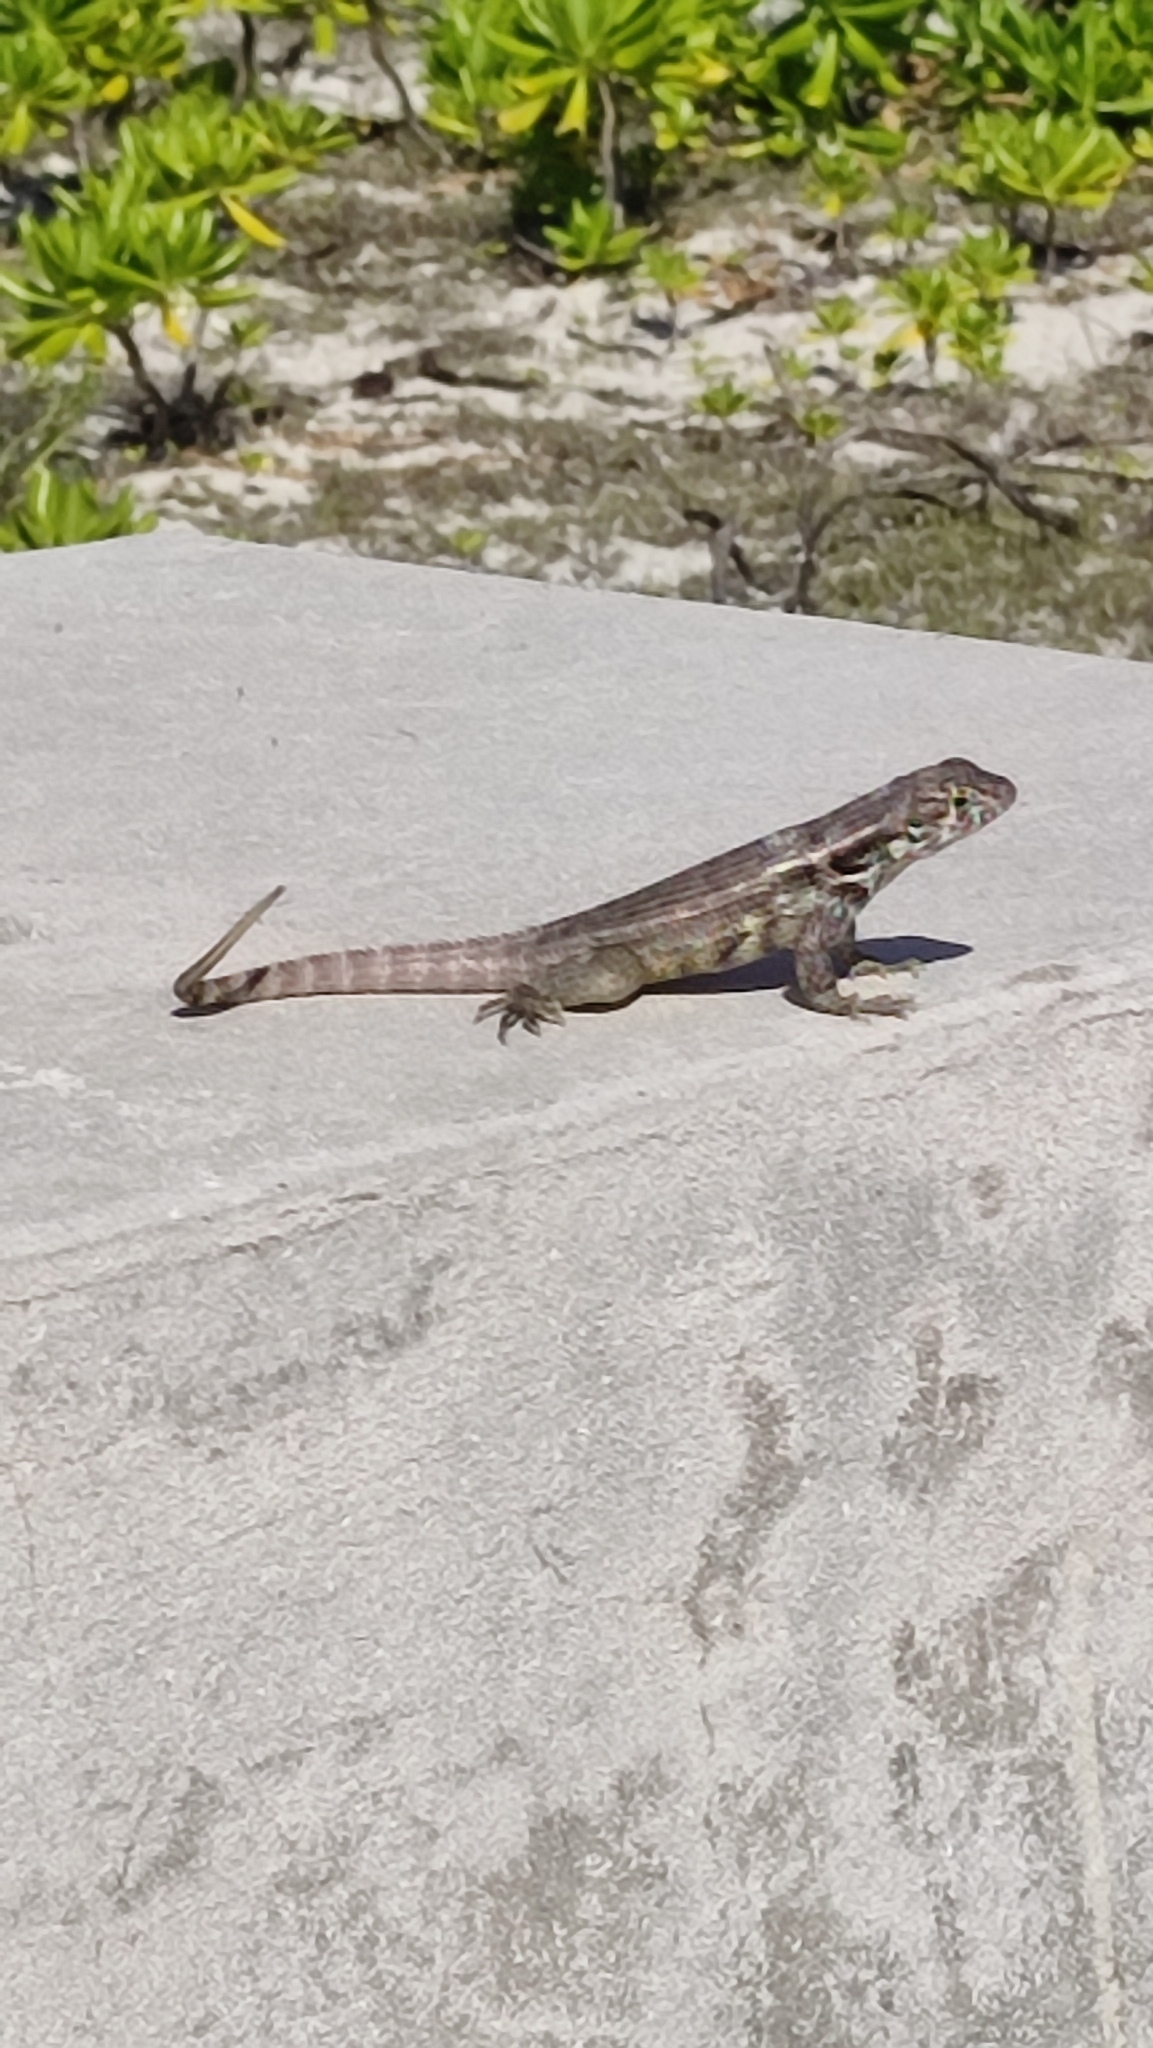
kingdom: Animalia
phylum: Chordata
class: Squamata
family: Leiocephalidae
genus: Leiocephalus
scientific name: Leiocephalus varius
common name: Cayman curlytail
